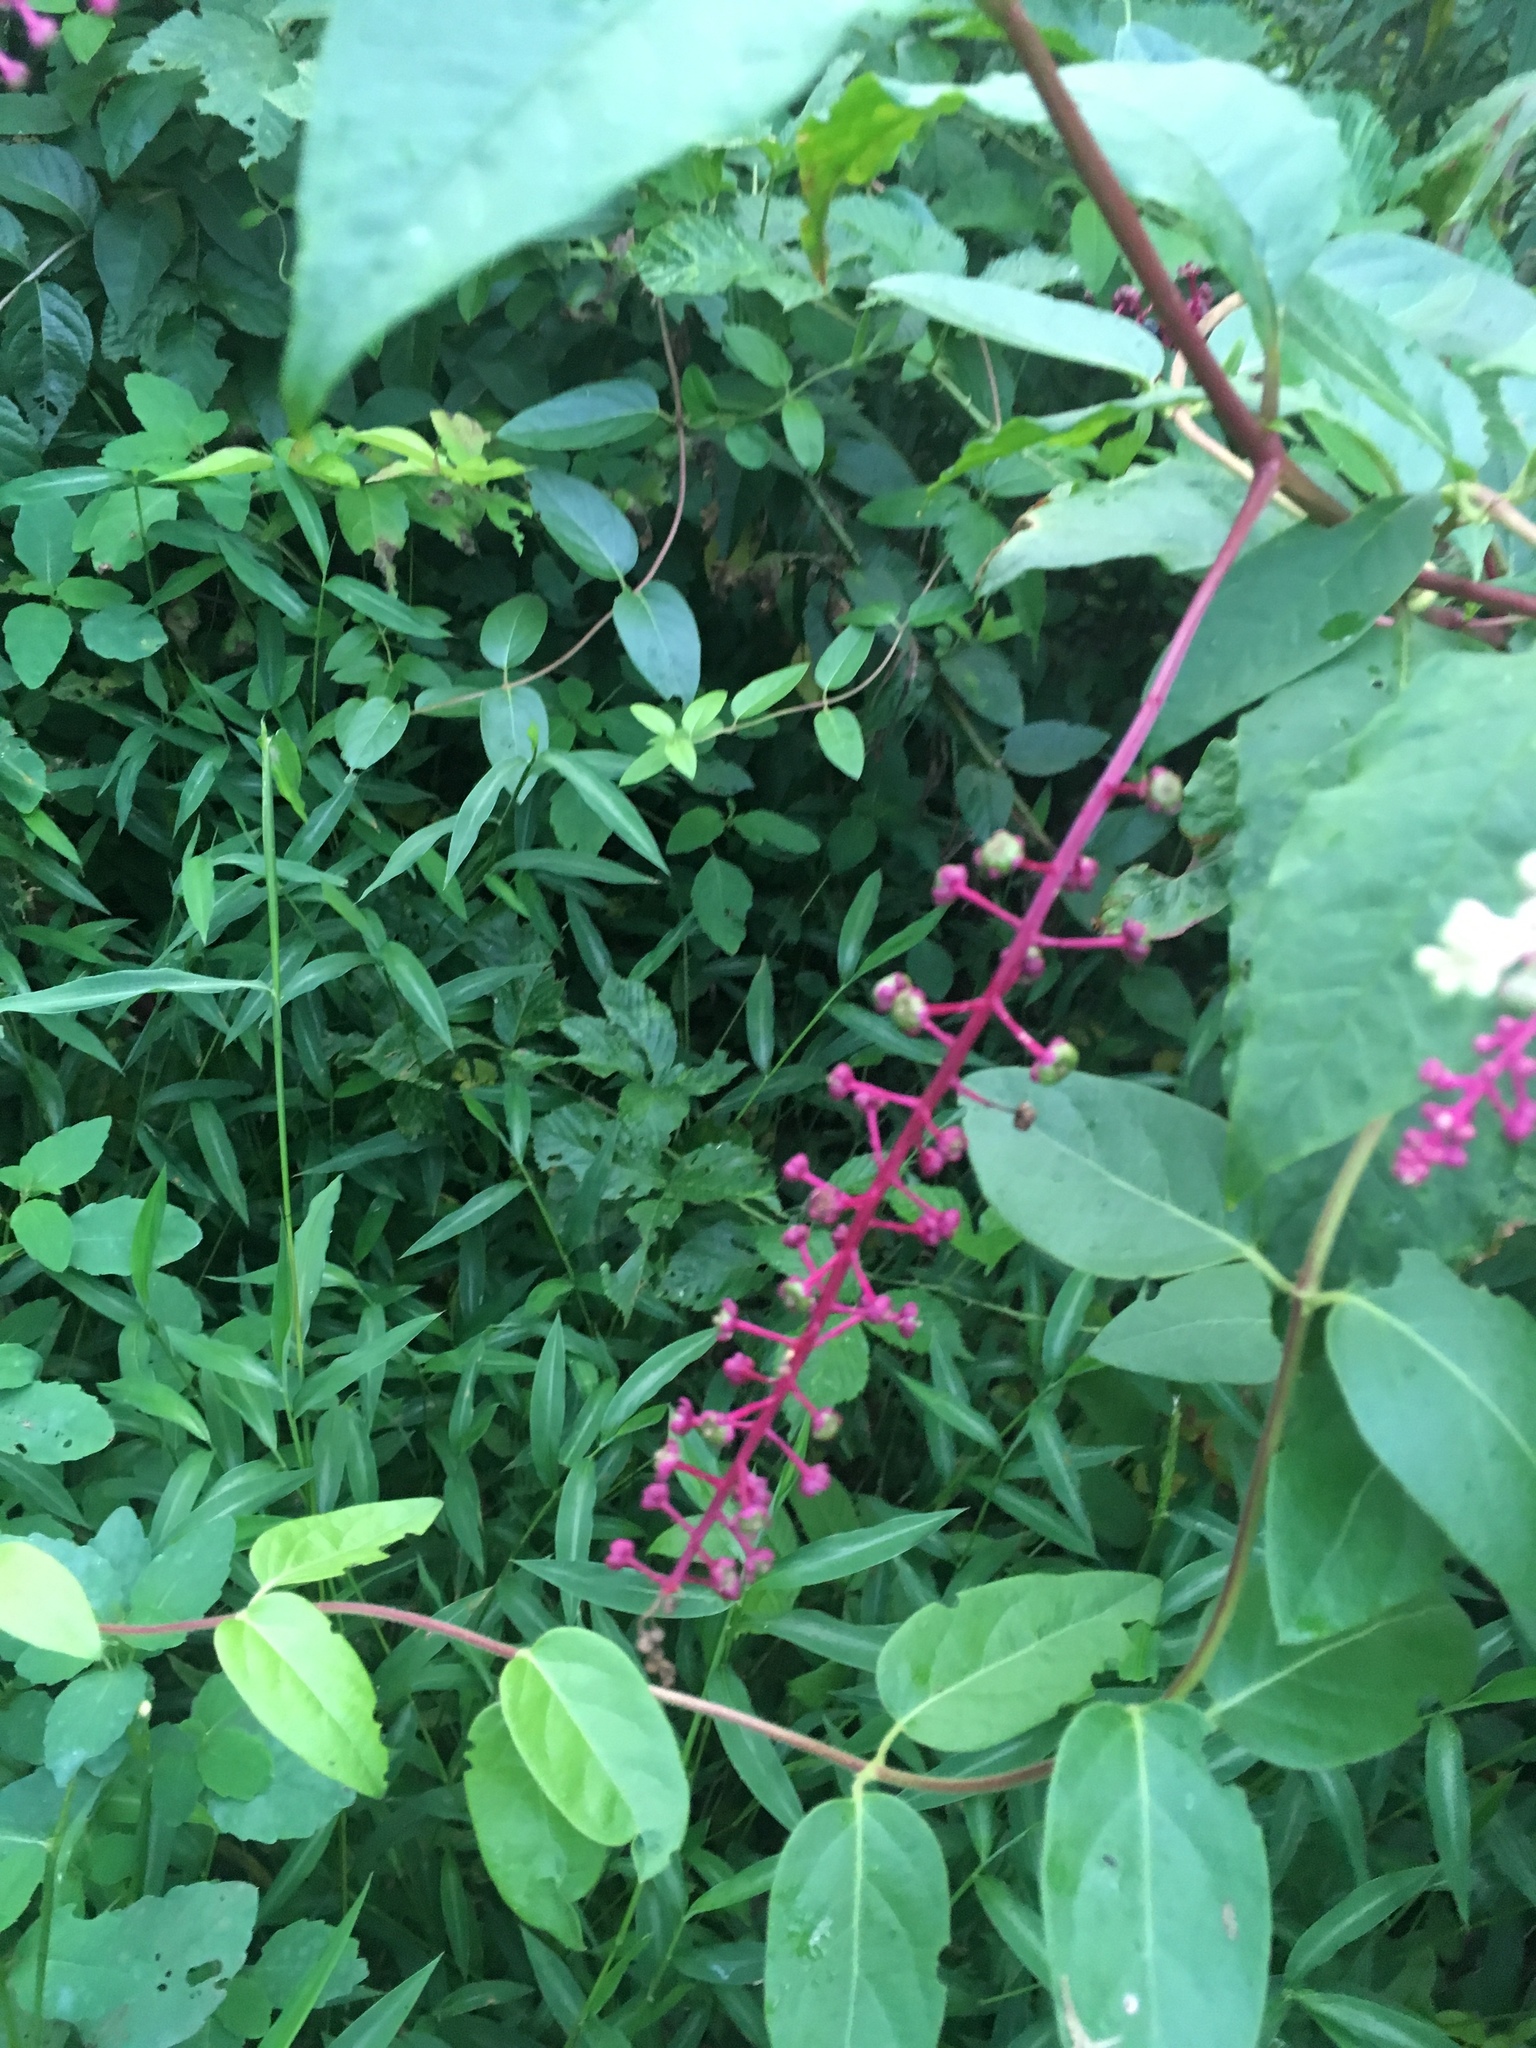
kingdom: Plantae
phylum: Tracheophyta
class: Magnoliopsida
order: Caryophyllales
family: Phytolaccaceae
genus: Phytolacca
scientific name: Phytolacca americana
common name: American pokeweed
